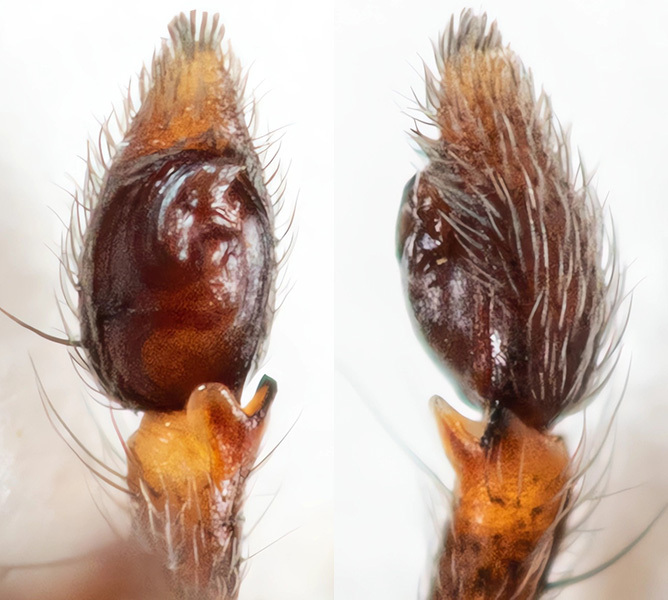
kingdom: Animalia
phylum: Arthropoda
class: Arachnida
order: Araneae
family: Philodromidae
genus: Rhysodromus
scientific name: Rhysodromus pictus
